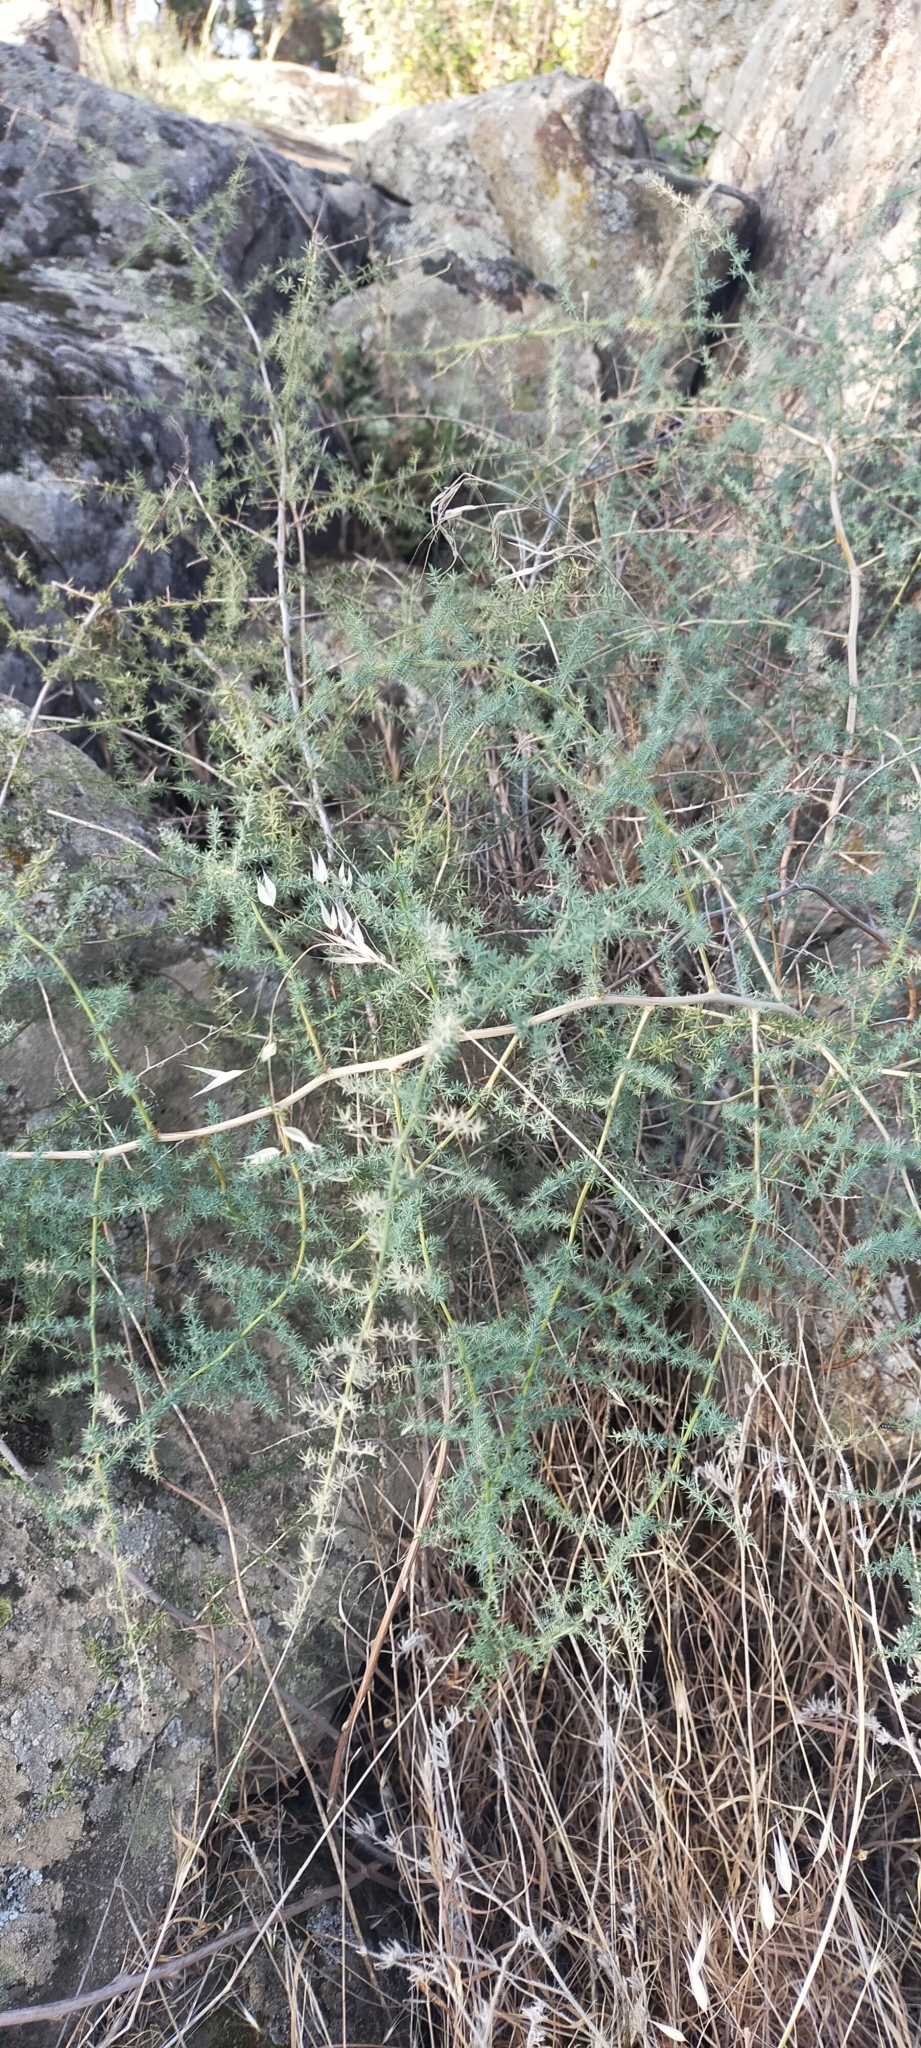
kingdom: Plantae
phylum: Tracheophyta
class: Liliopsida
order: Asparagales
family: Asparagaceae
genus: Asparagus
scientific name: Asparagus acutifolius
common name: Wild asparagus
